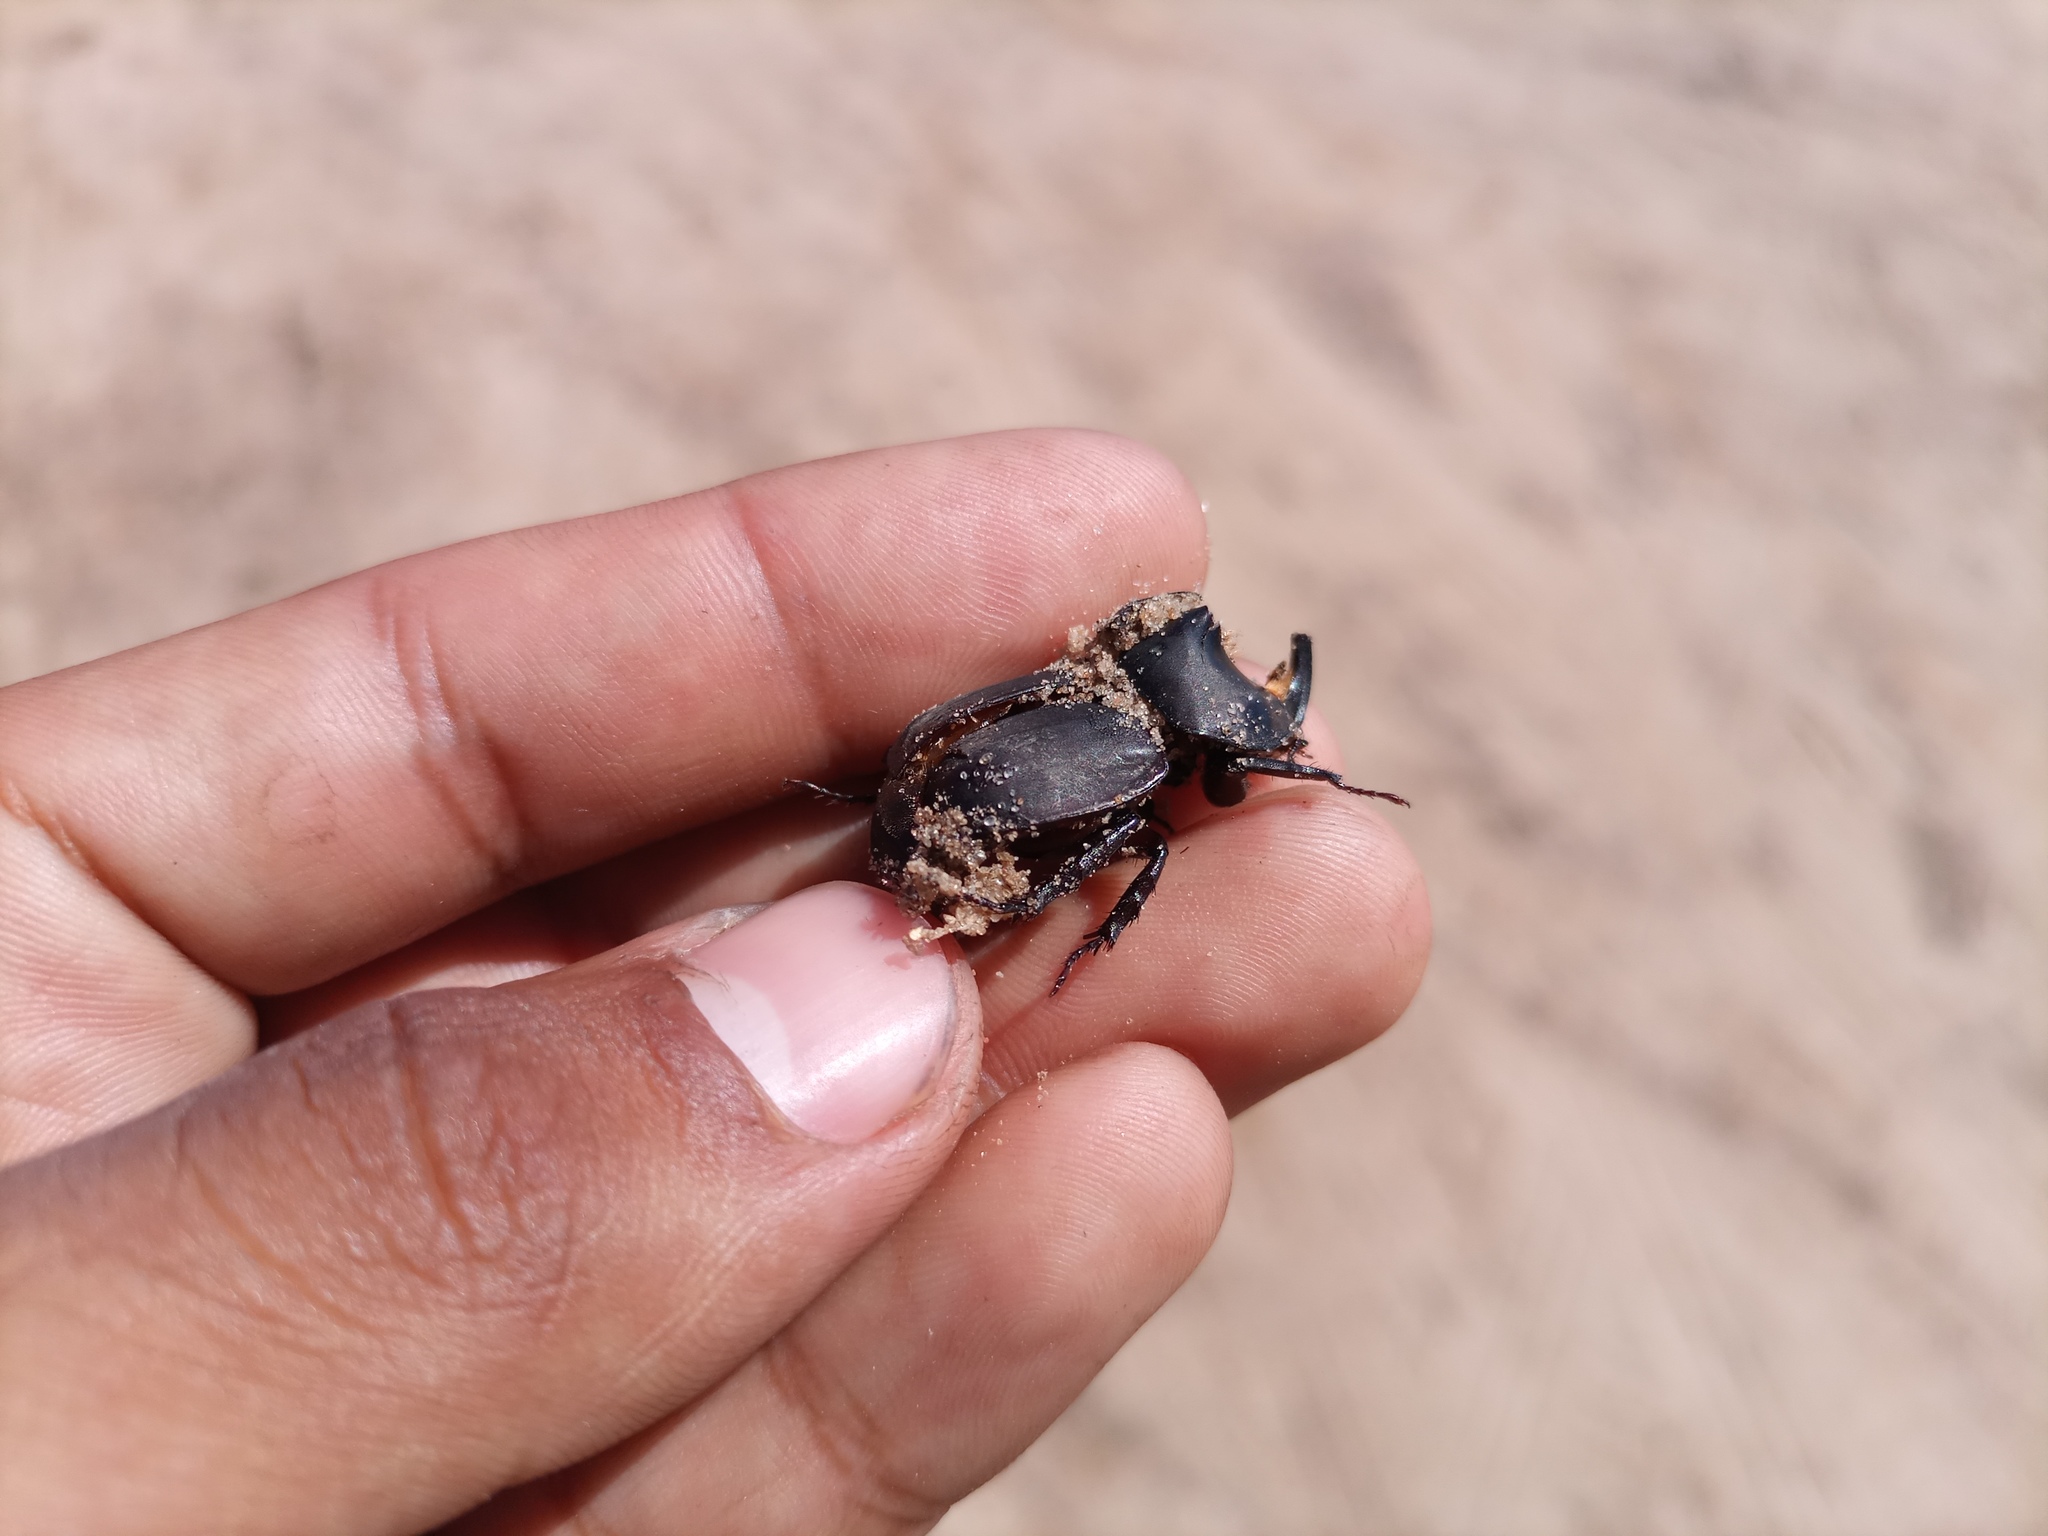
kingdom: Animalia
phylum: Arthropoda
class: Insecta
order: Coleoptera
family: Scarabaeidae
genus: Diloboderus
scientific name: Diloboderus abderus
